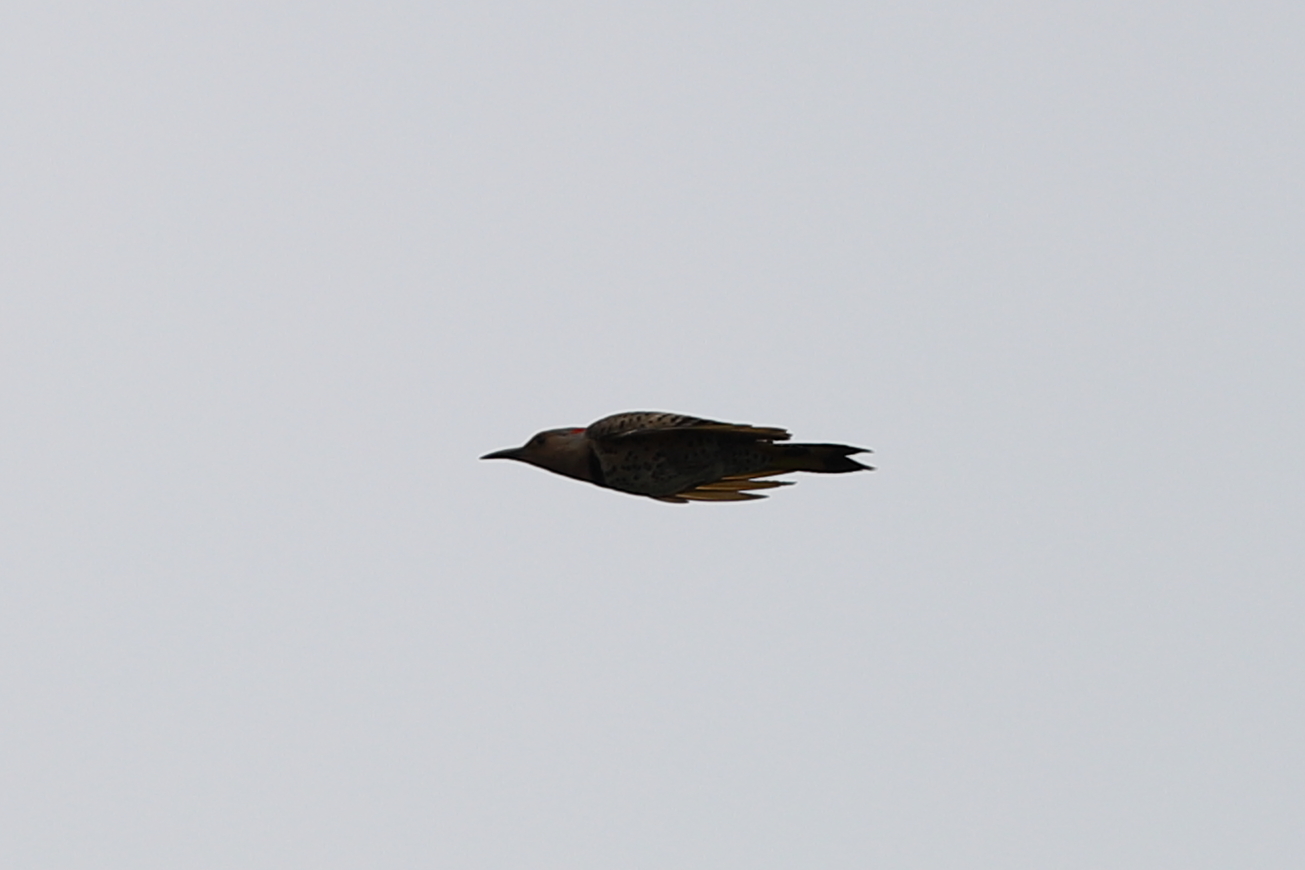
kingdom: Animalia
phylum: Chordata
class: Aves
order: Piciformes
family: Picidae
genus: Colaptes
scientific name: Colaptes auratus
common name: Northern flicker
